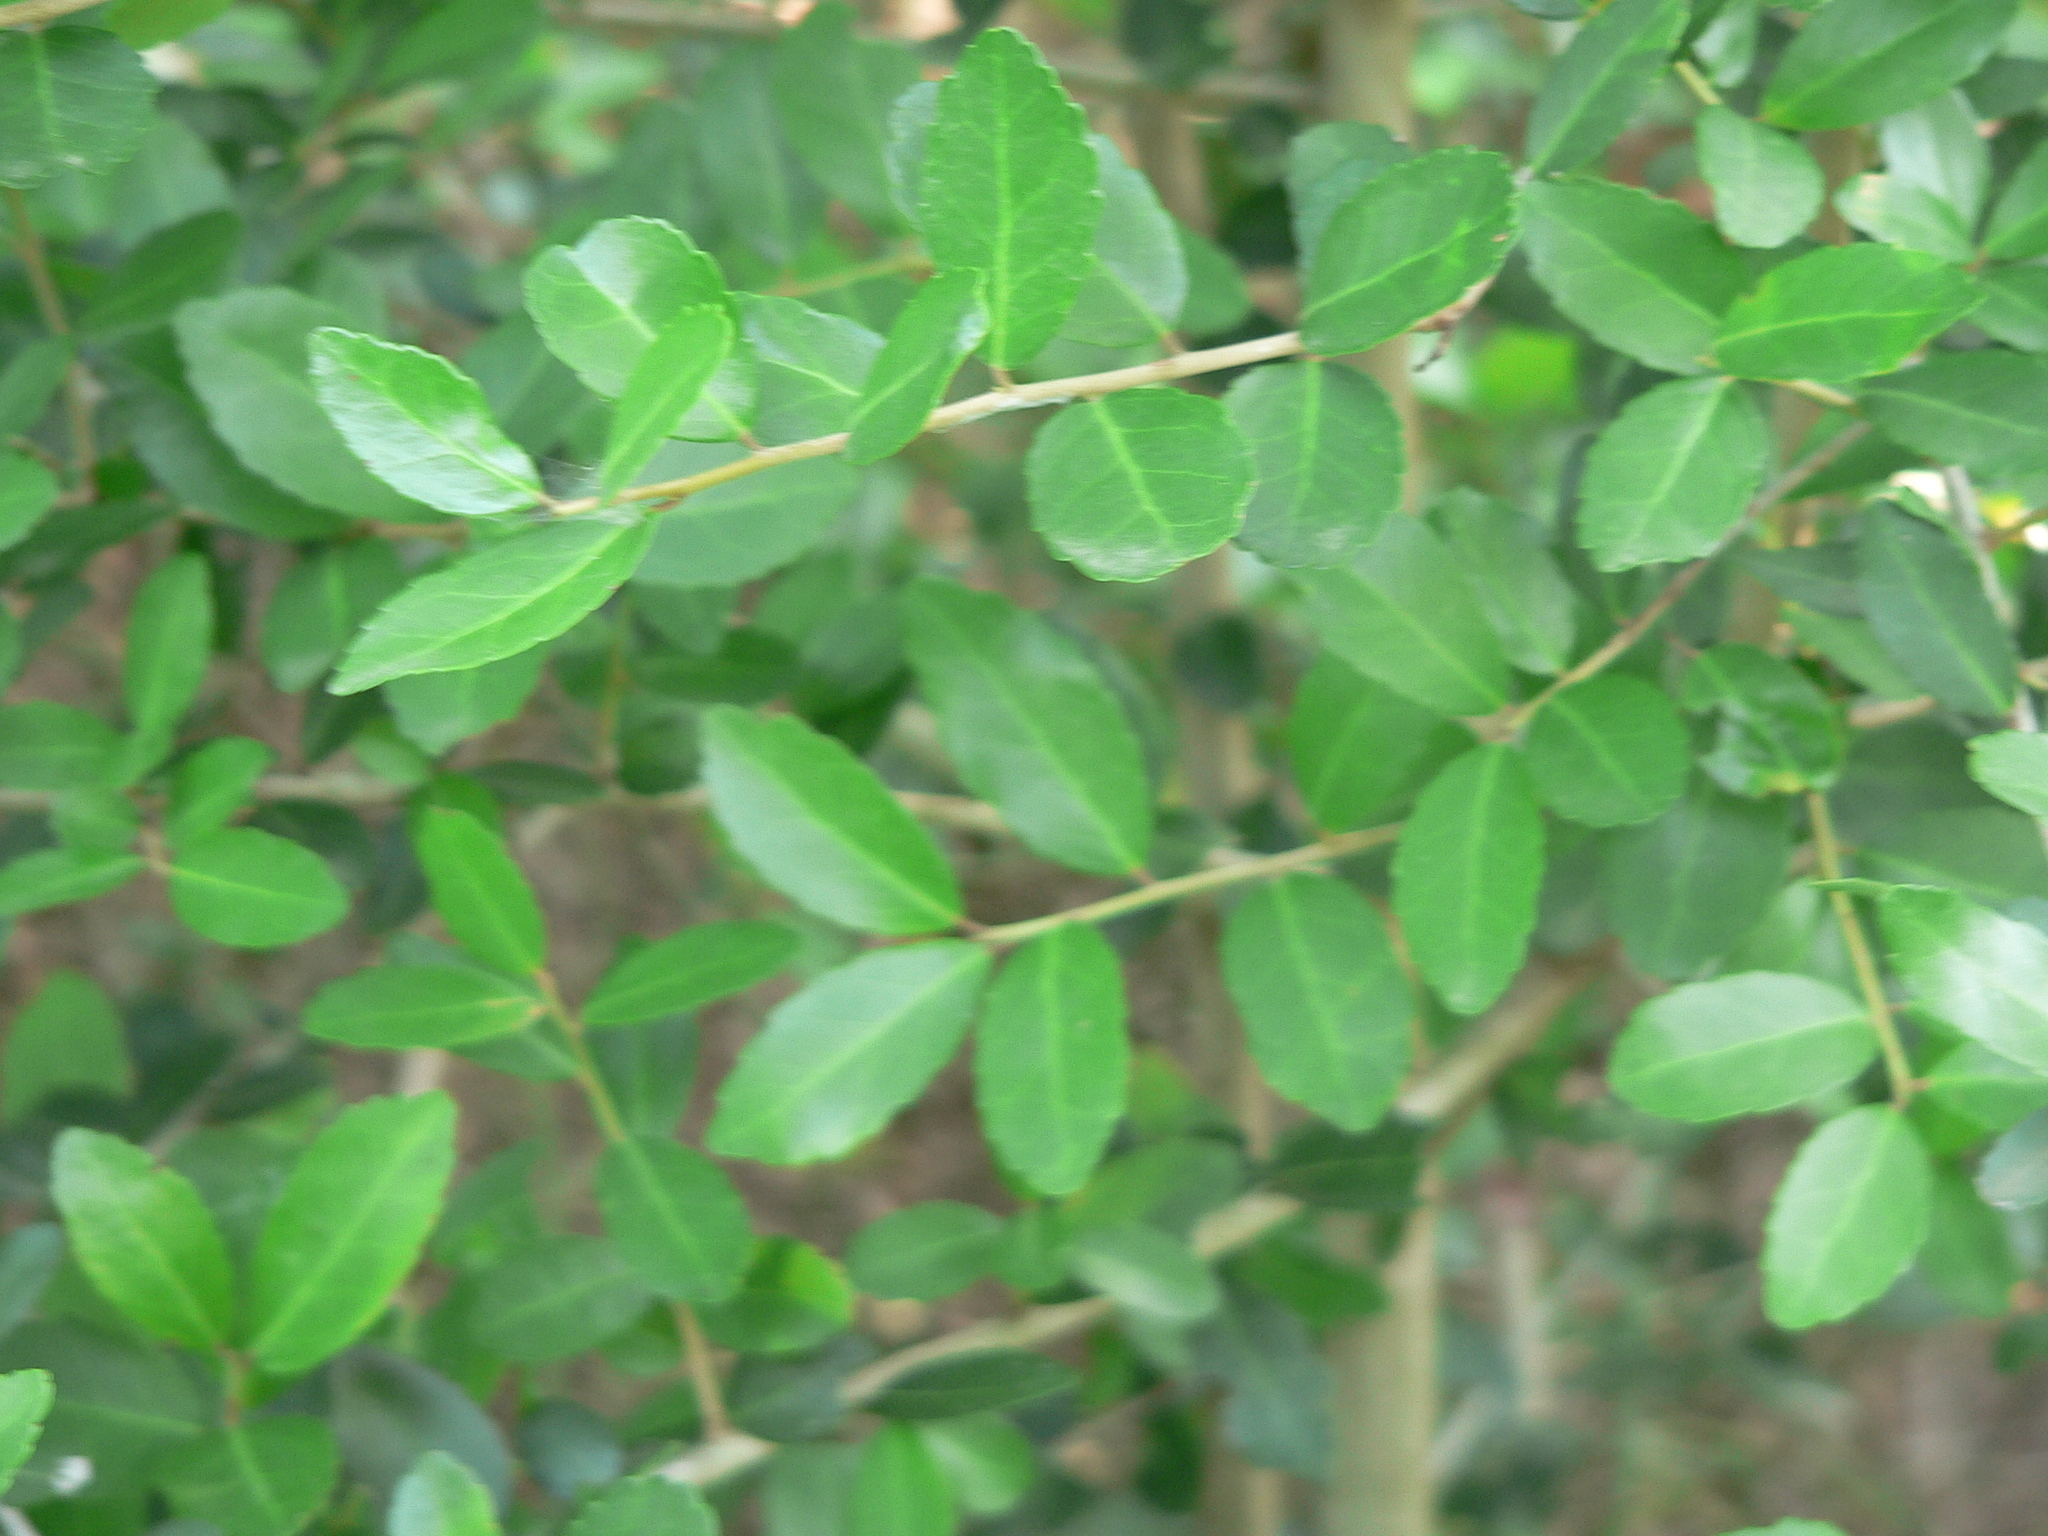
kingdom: Plantae
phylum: Tracheophyta
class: Magnoliopsida
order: Aquifoliales
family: Aquifoliaceae
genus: Ilex
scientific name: Ilex vomitoria
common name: Yaupon holly
